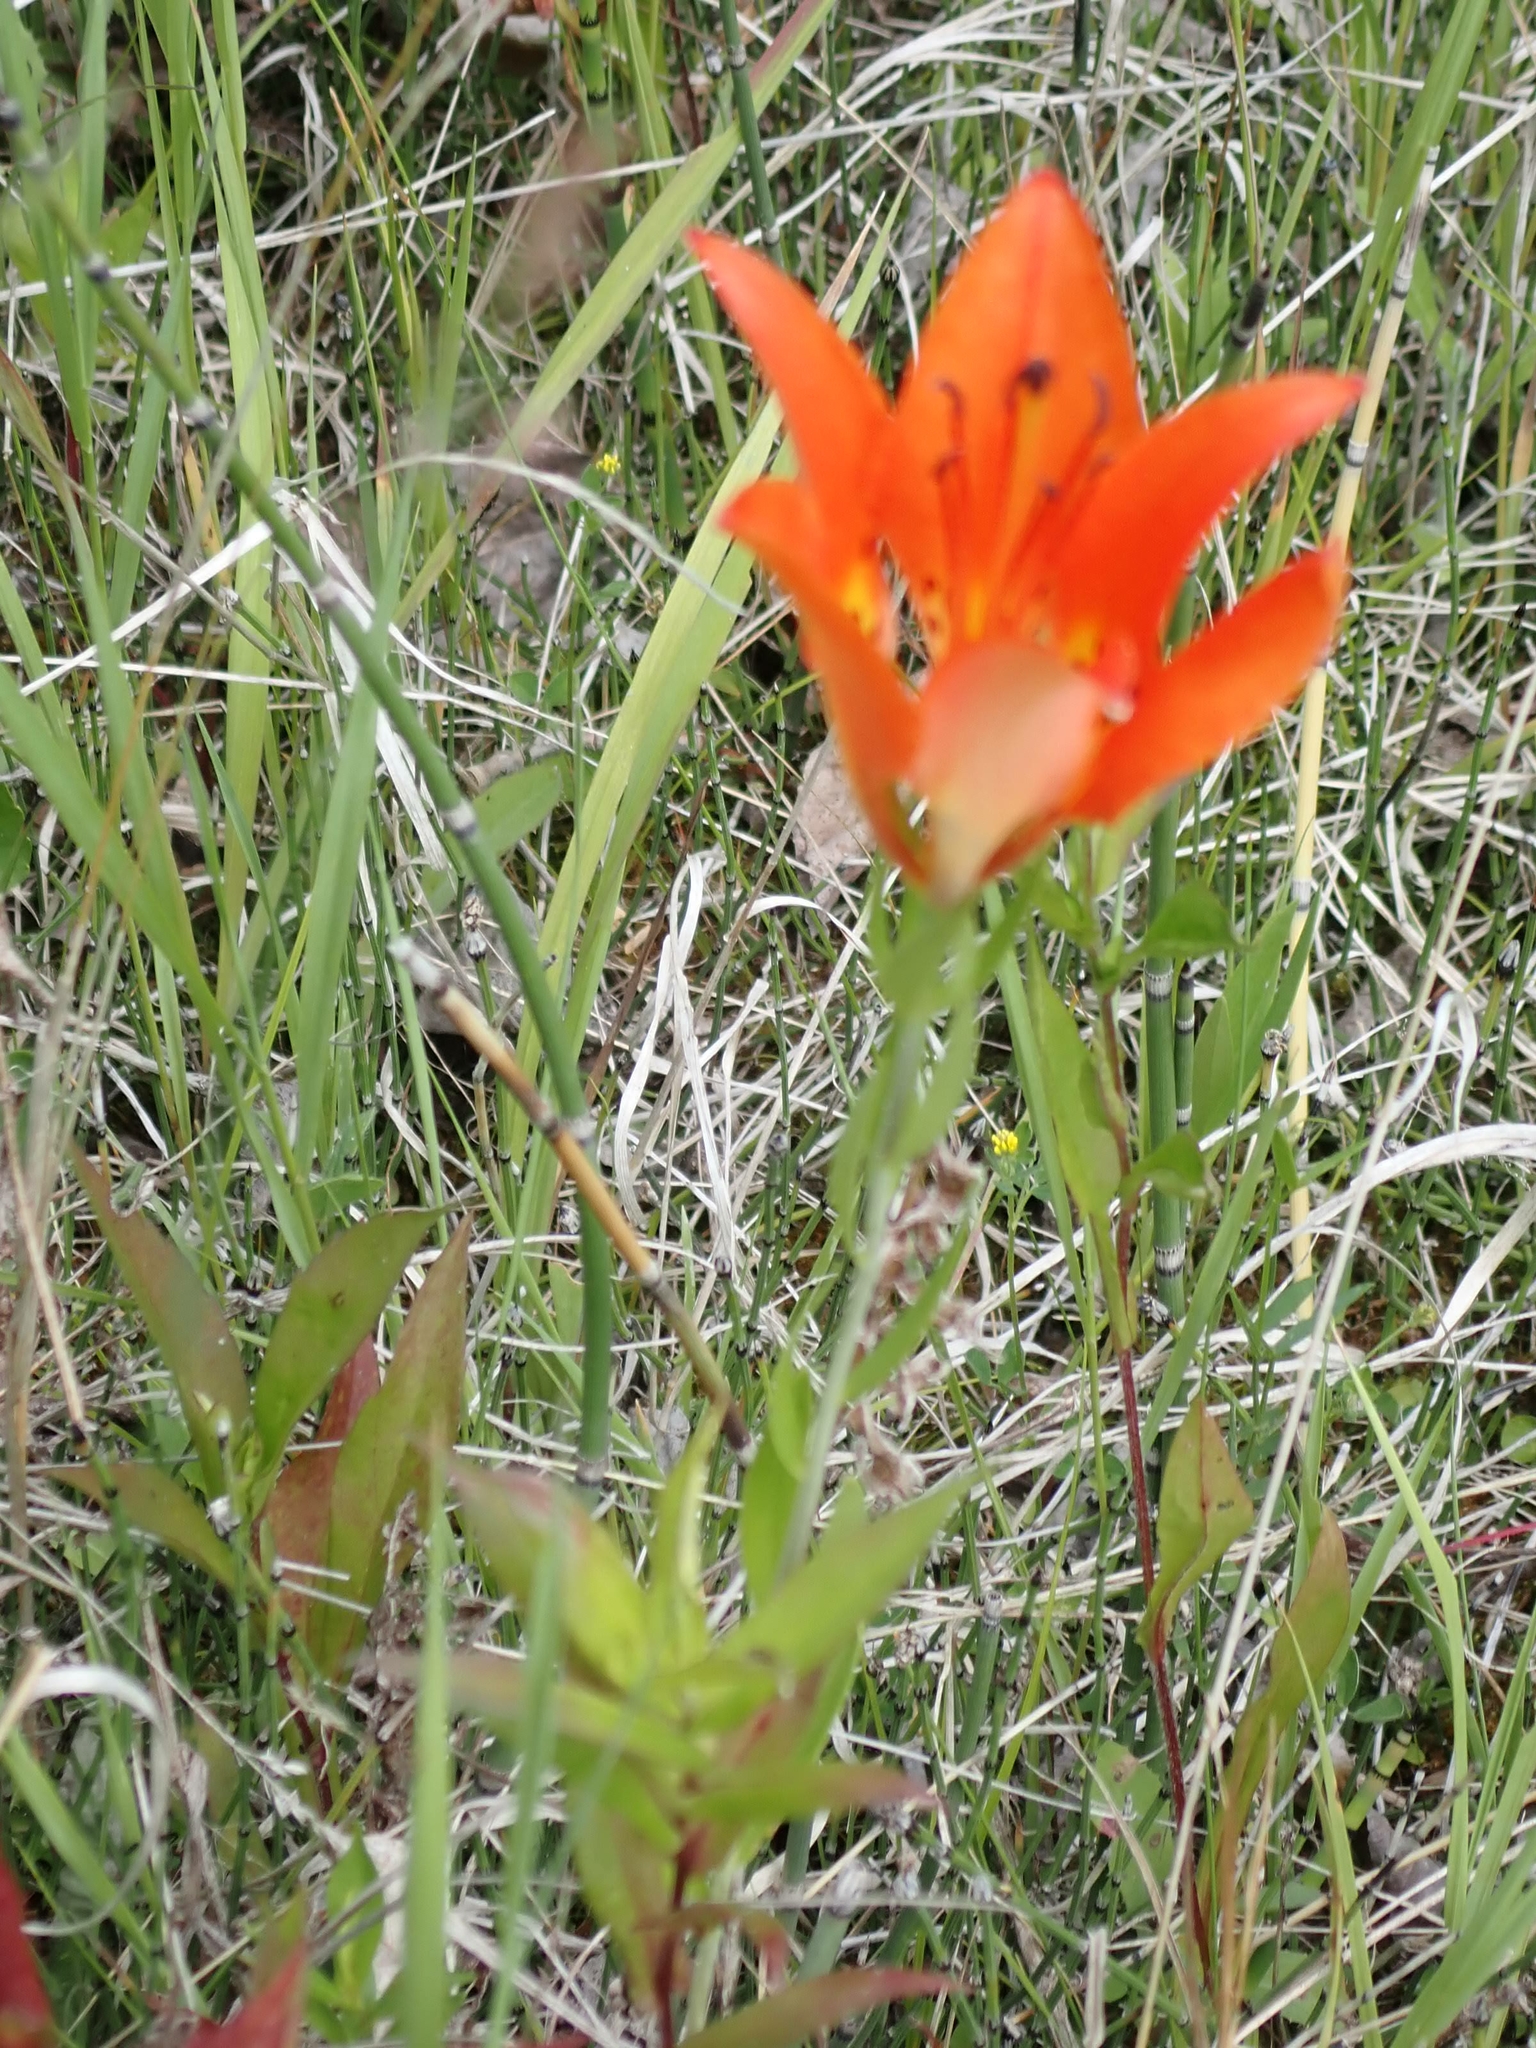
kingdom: Plantae
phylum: Tracheophyta
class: Liliopsida
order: Liliales
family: Liliaceae
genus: Lilium
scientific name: Lilium philadelphicum
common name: Red lily
